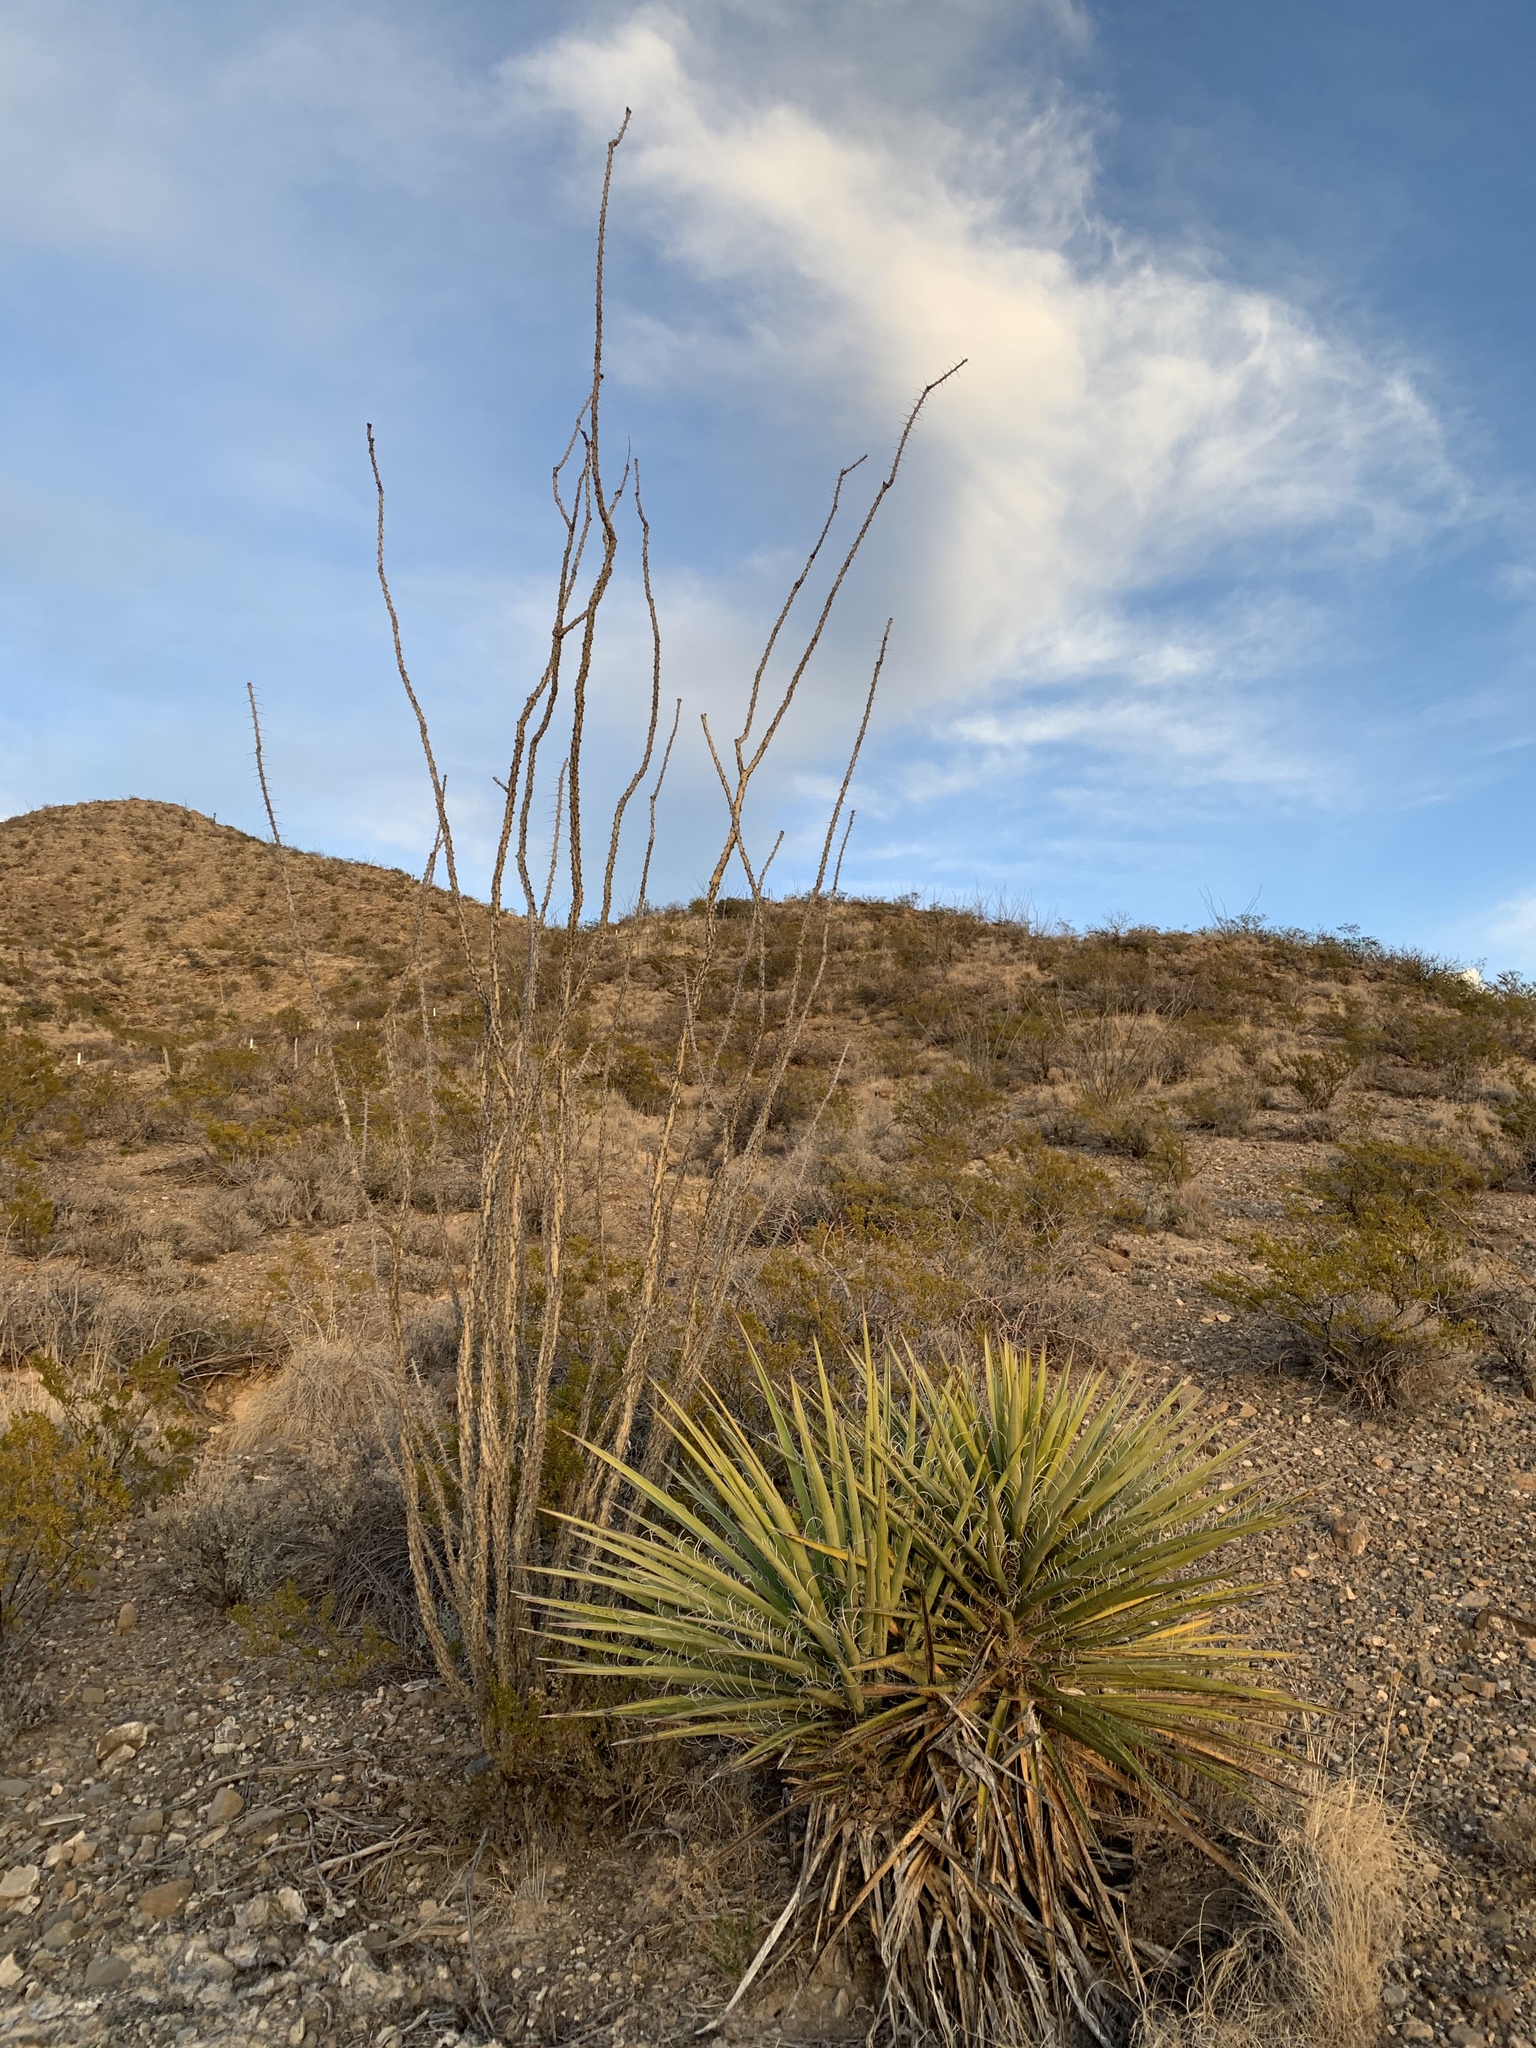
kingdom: Plantae
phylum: Tracheophyta
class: Liliopsida
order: Asparagales
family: Asparagaceae
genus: Yucca
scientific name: Yucca treculiana
